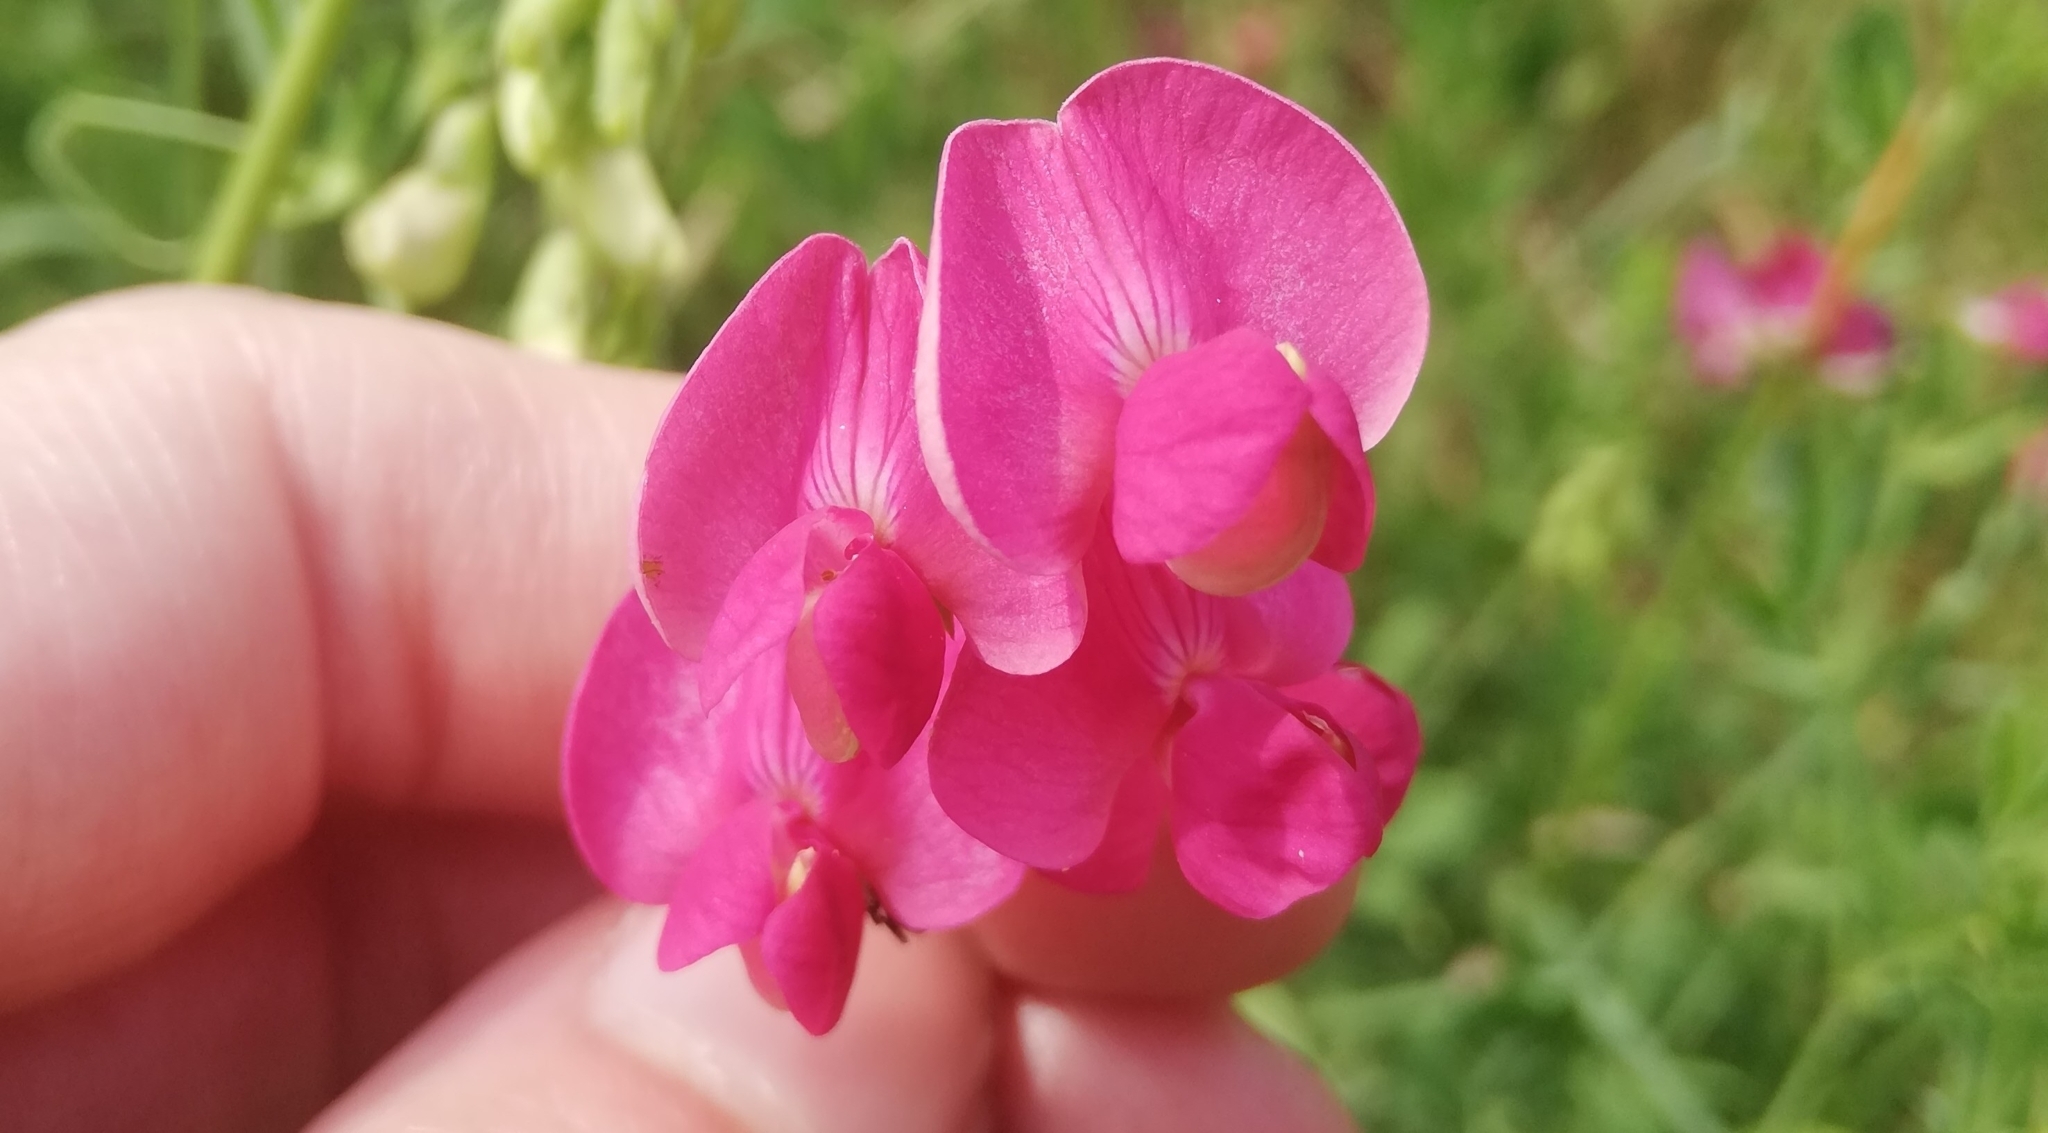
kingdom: Plantae
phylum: Tracheophyta
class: Magnoliopsida
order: Fabales
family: Fabaceae
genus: Lathyrus
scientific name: Lathyrus tuberosus
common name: Tuberous pea
